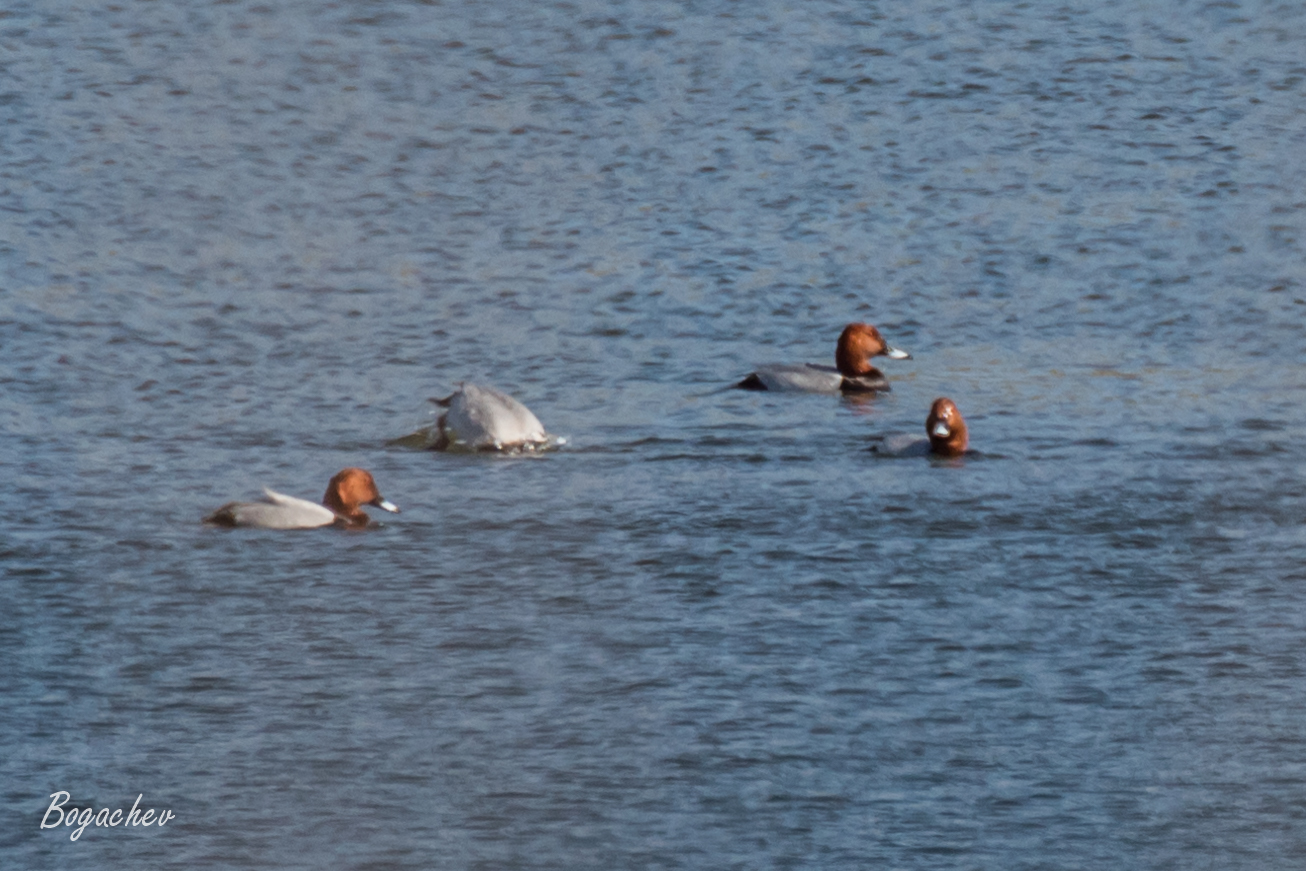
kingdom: Animalia
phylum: Chordata
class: Aves
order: Anseriformes
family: Anatidae
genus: Aythya
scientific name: Aythya ferina
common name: Common pochard
